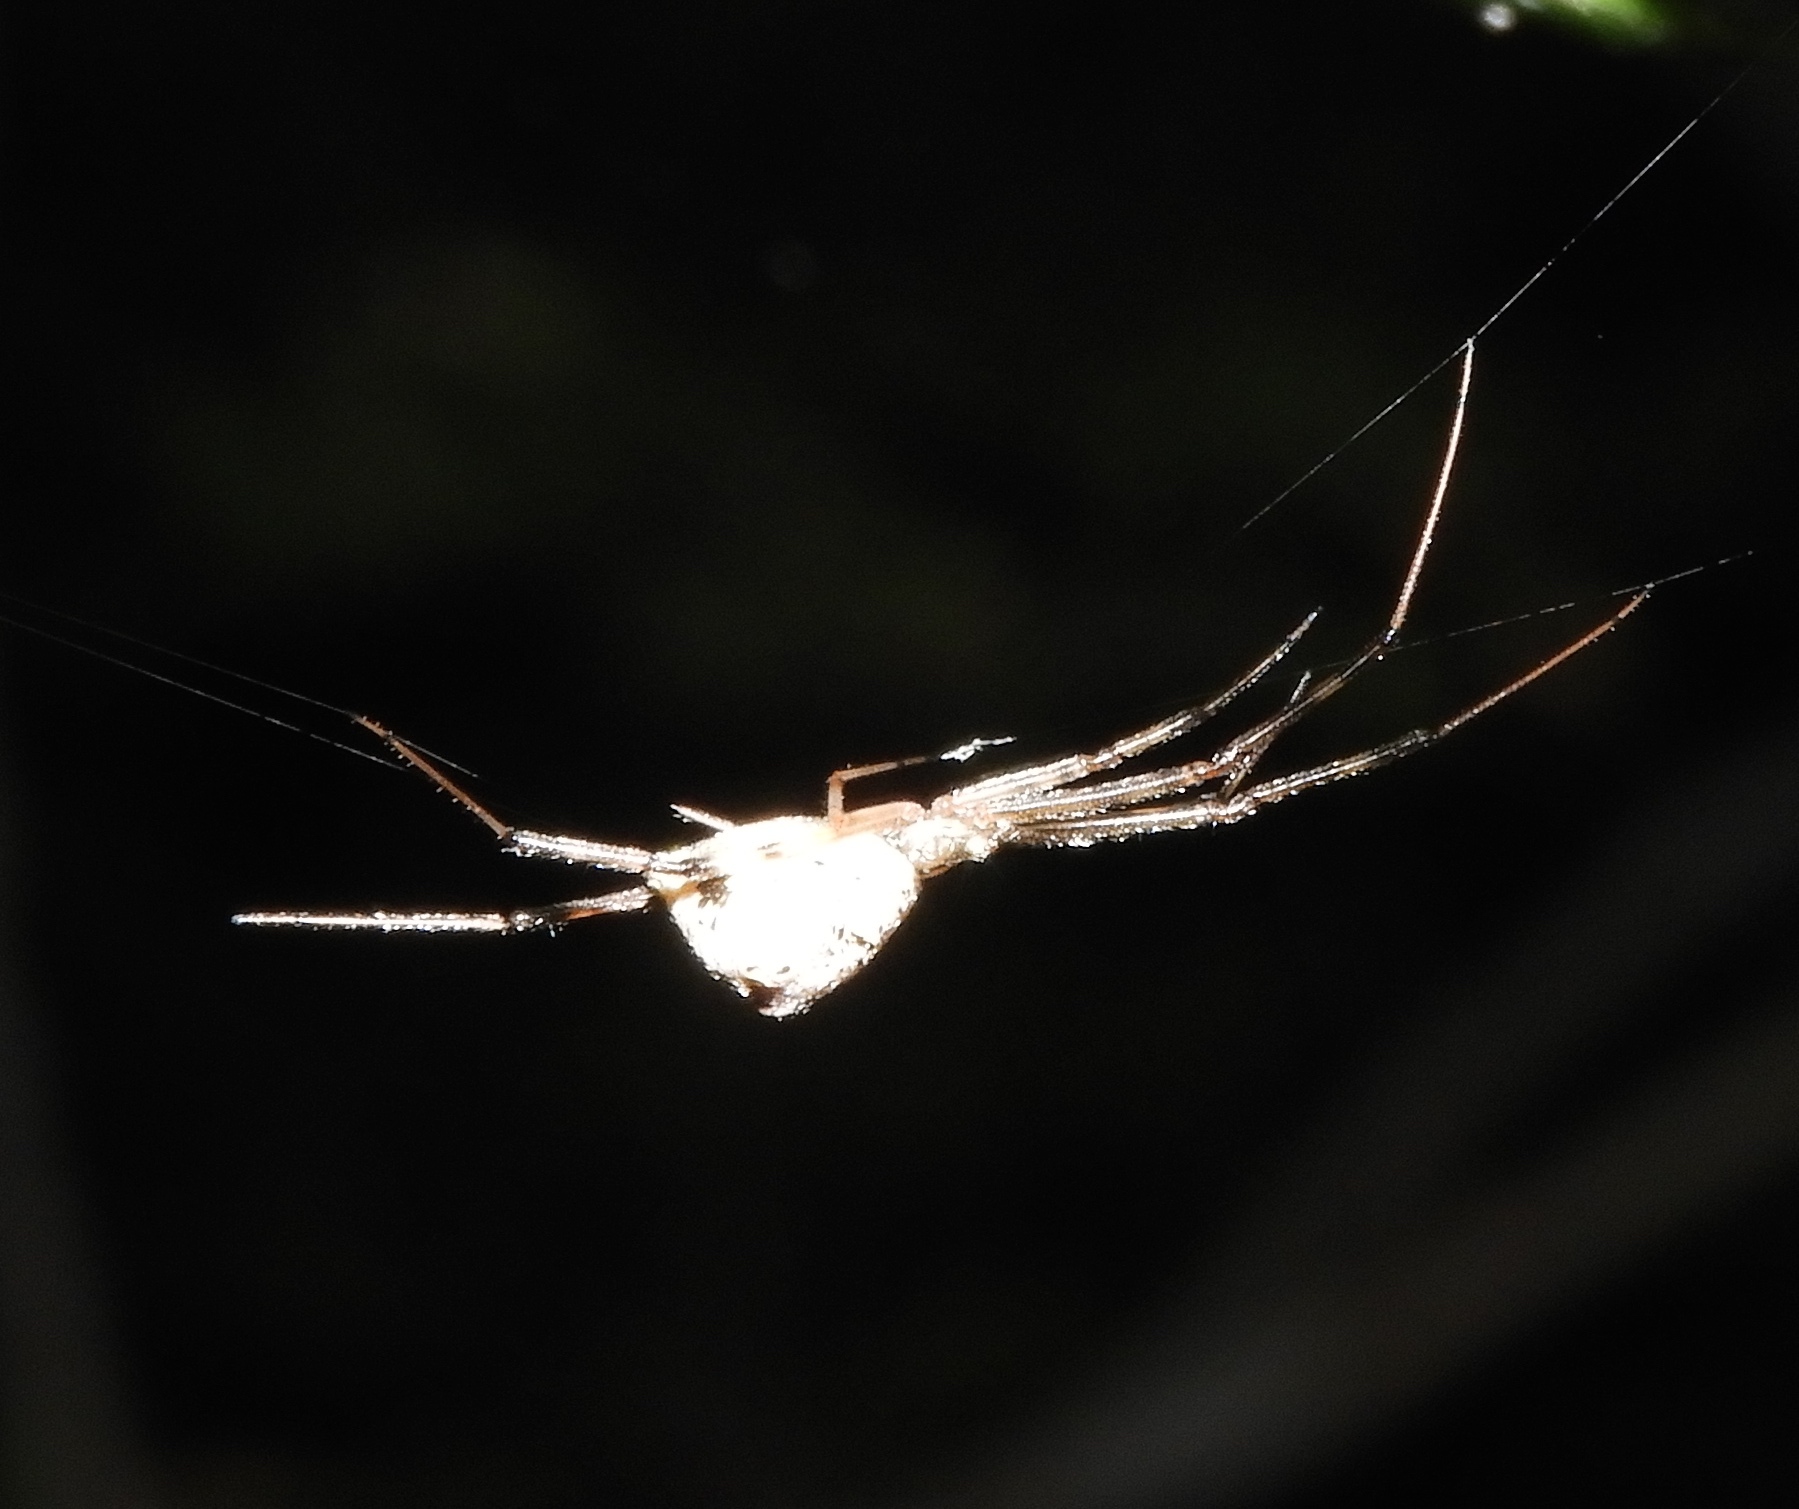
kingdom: Animalia
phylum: Arthropoda
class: Arachnida
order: Araneae
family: Theridiidae
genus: Neopisinus
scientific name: Neopisinus cognatus
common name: Cobweb spiders
